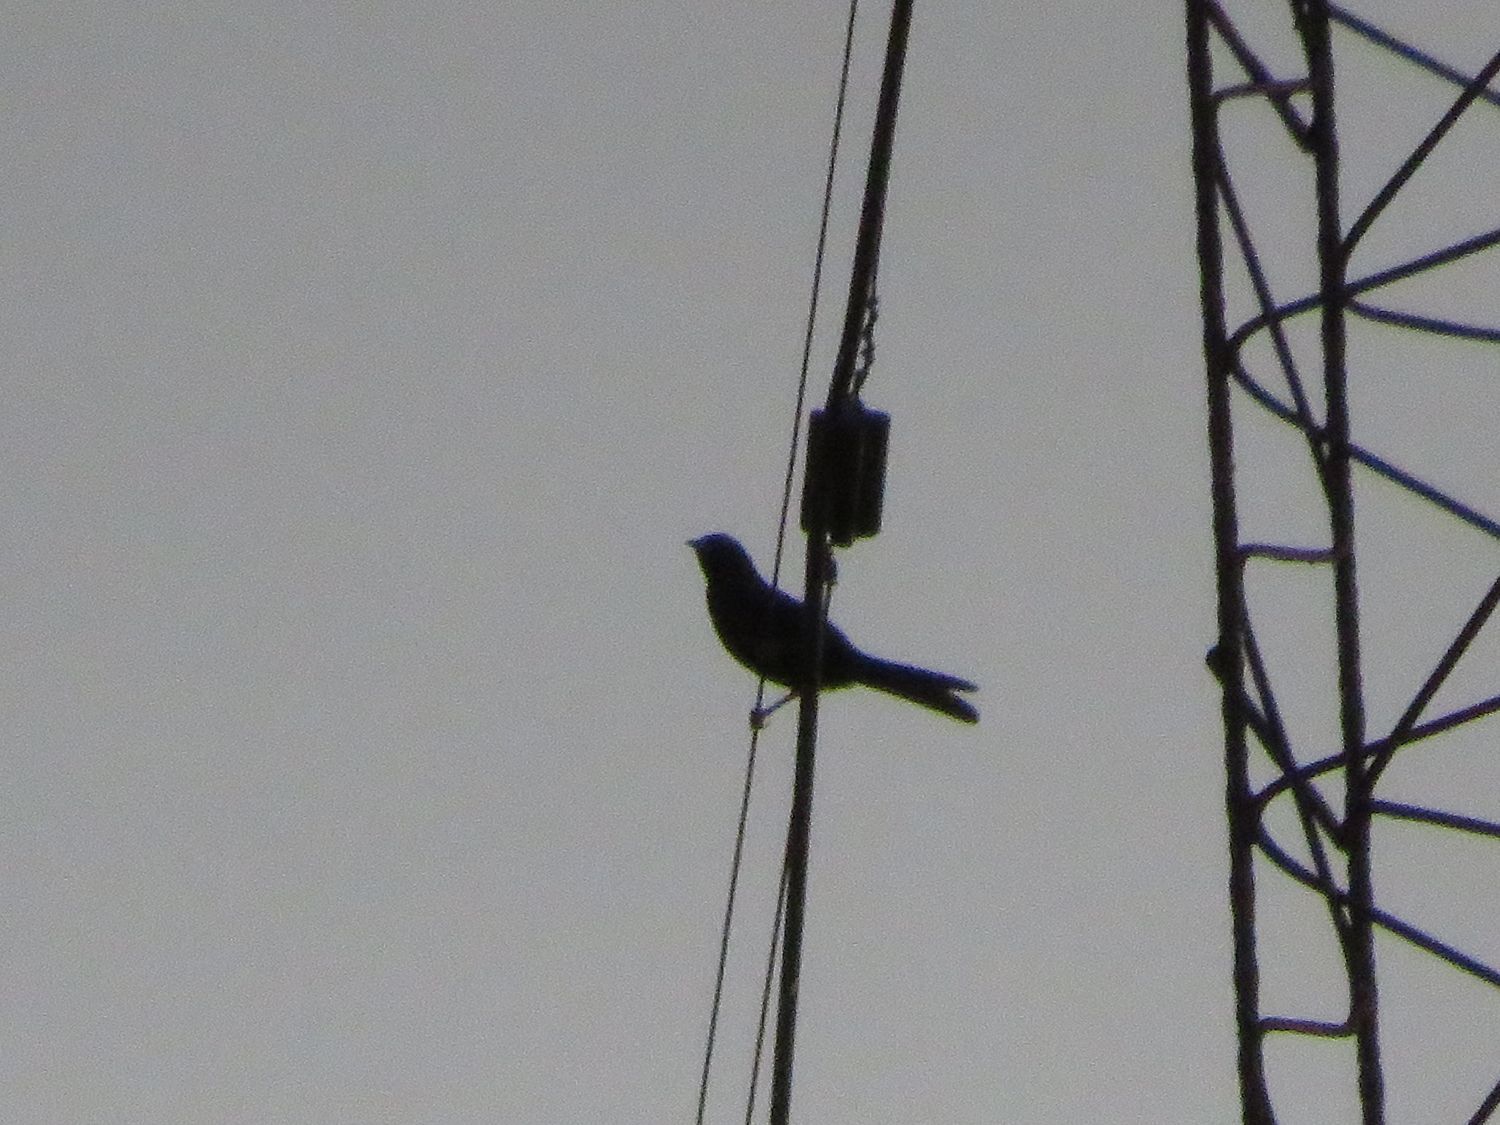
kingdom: Animalia
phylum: Chordata
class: Aves
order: Passeriformes
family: Icteridae
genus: Icterus
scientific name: Icterus cayanensis
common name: Epaulet oriole
